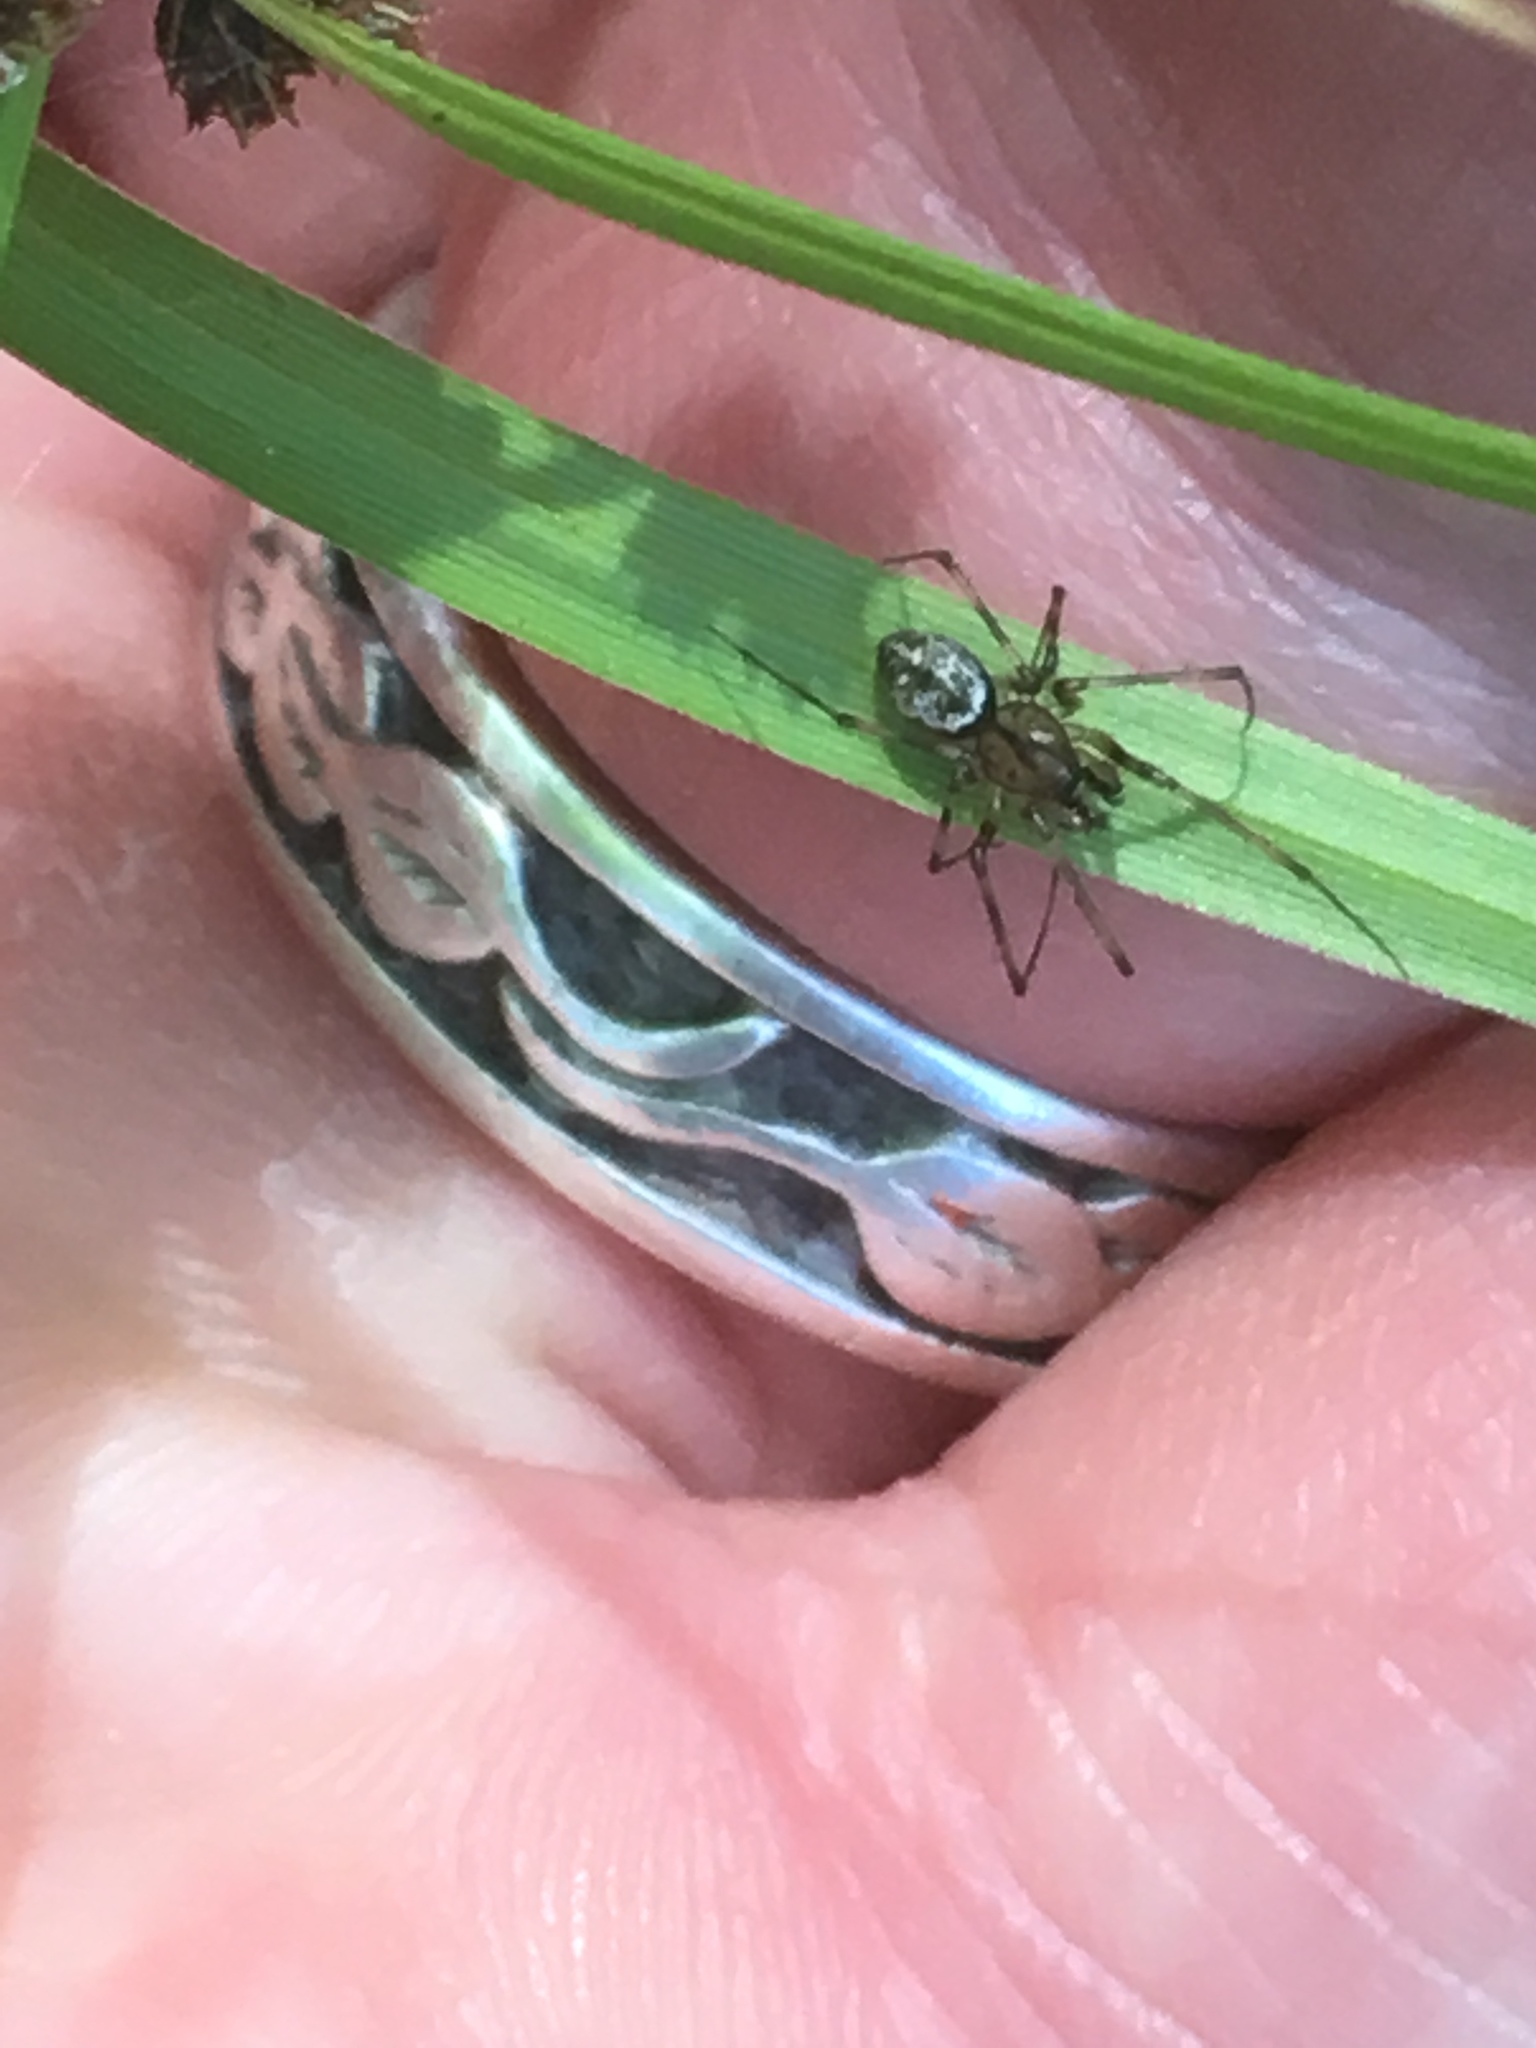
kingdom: Animalia
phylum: Arthropoda
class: Arachnida
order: Araneae
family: Linyphiidae
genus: Drapetisca
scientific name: Drapetisca alteranda
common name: Northern long-toothed sheetweaver
